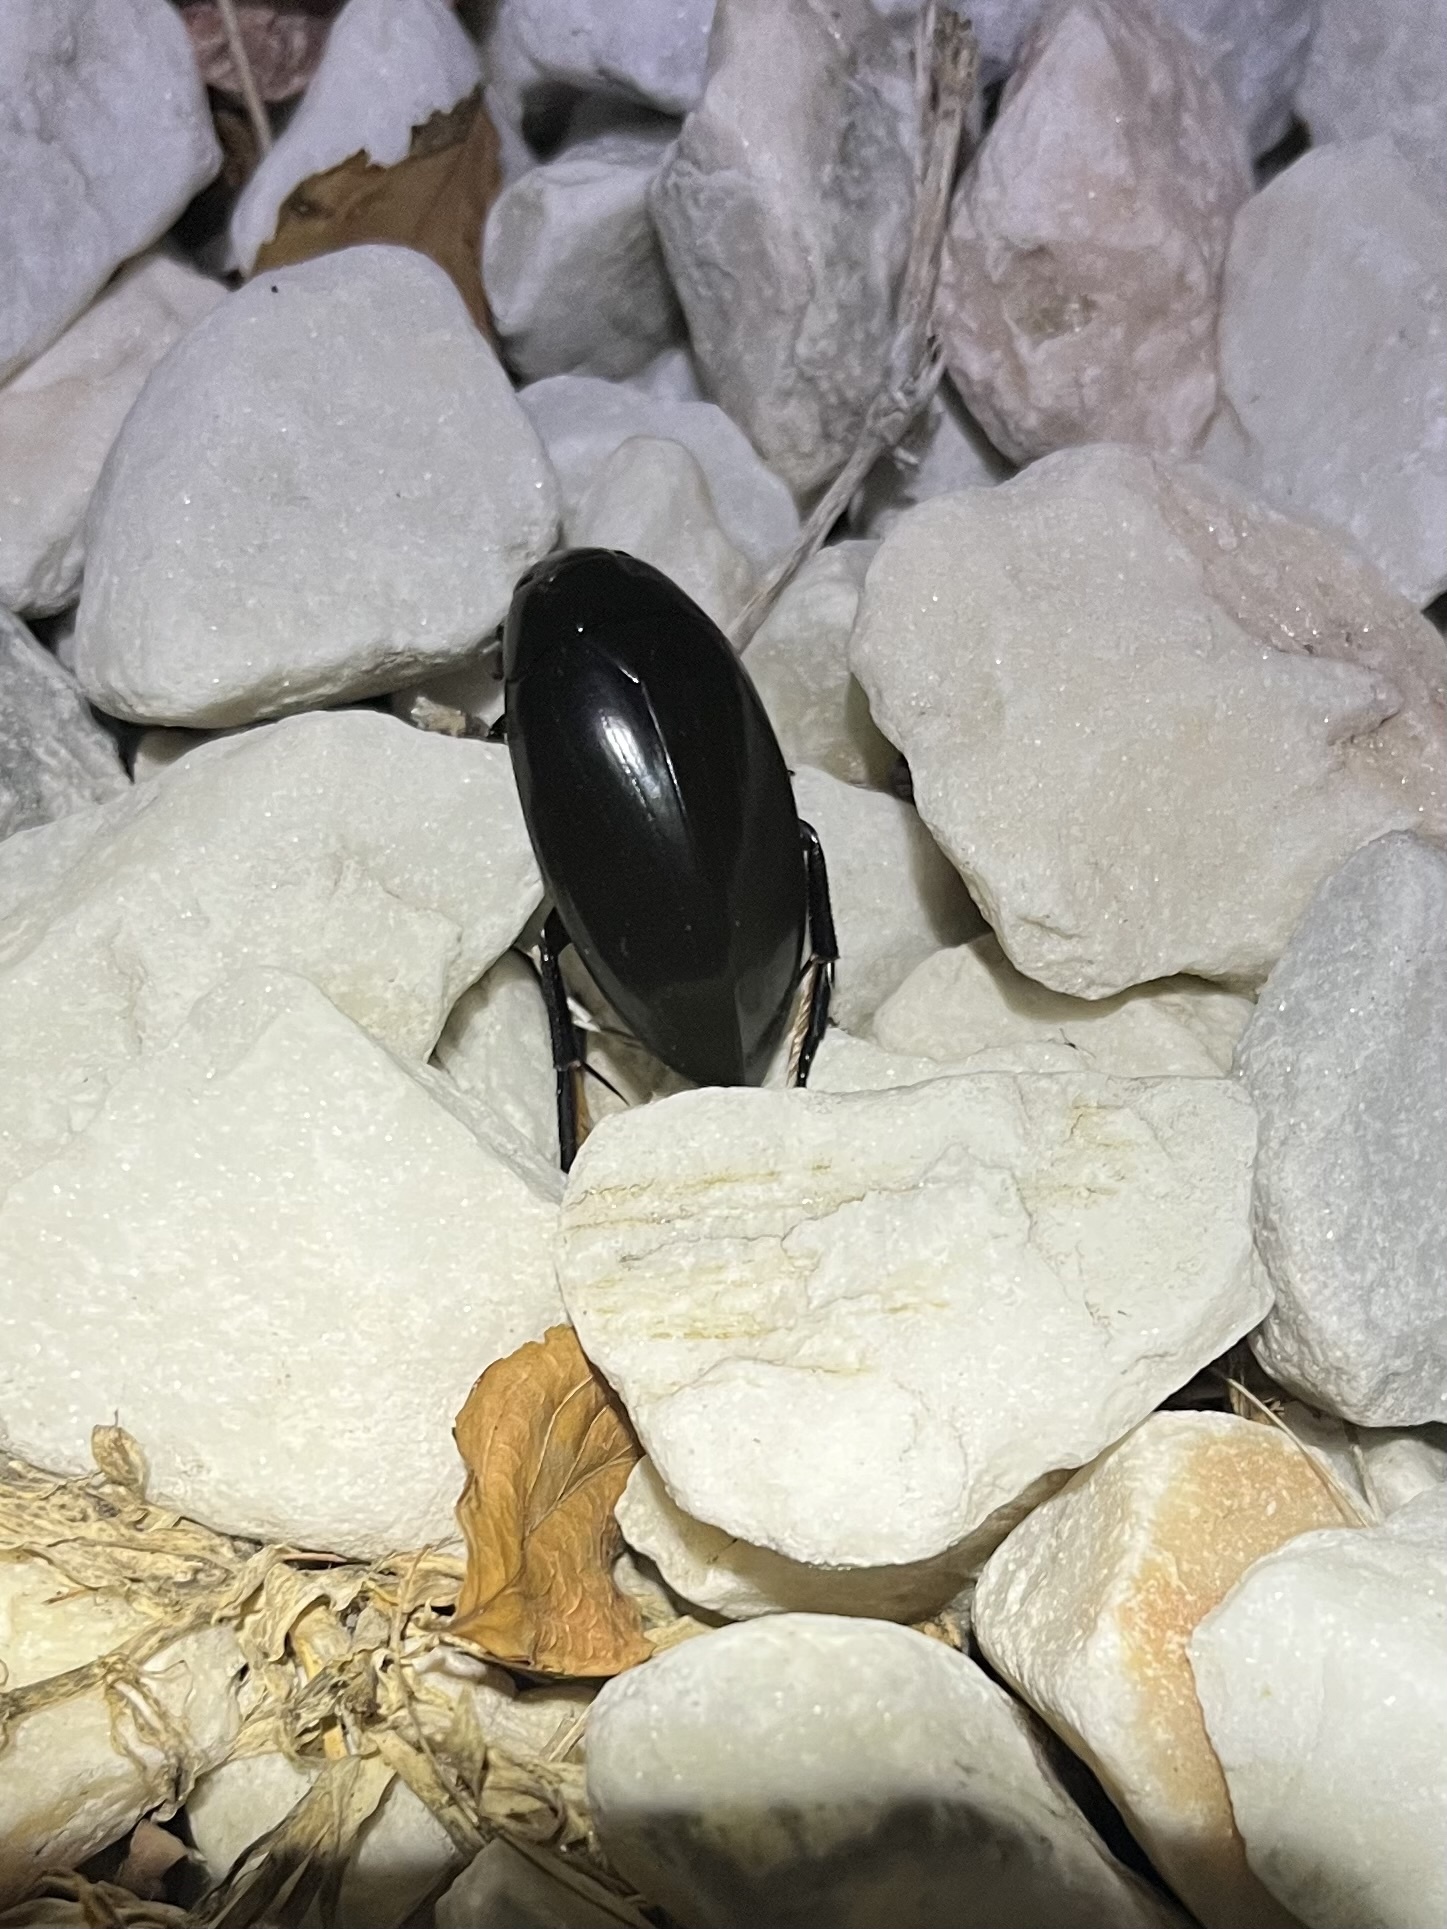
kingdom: Animalia
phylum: Arthropoda
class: Insecta
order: Coleoptera
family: Hydrophilidae
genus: Hydrophilus
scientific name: Hydrophilus
